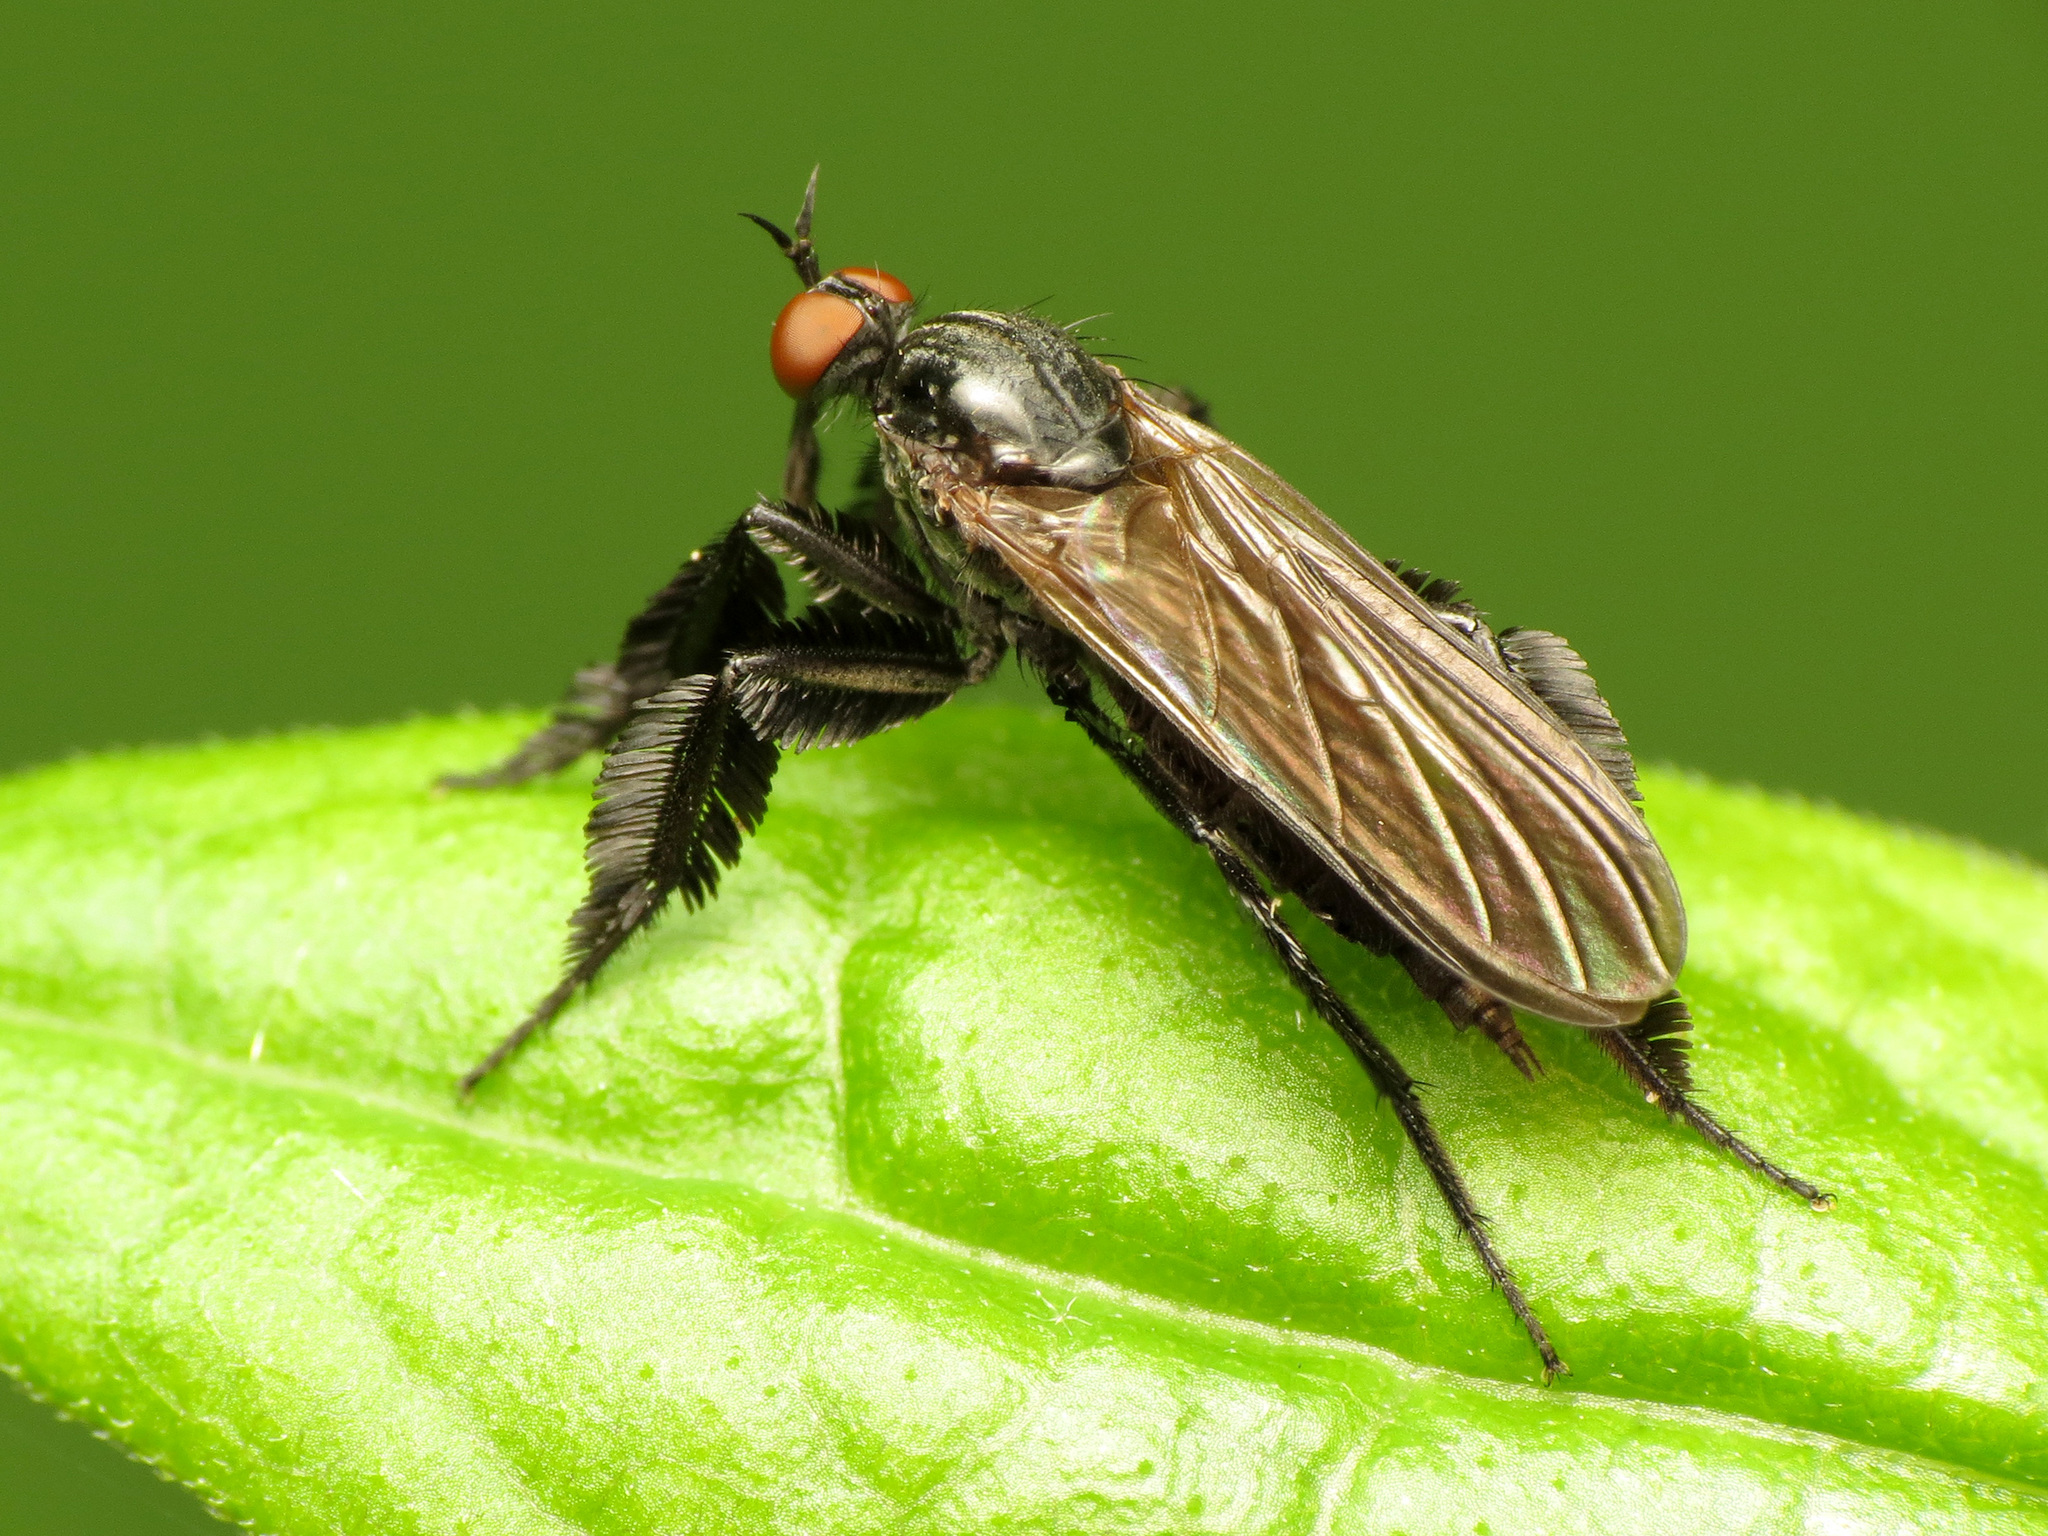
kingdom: Animalia
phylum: Arthropoda
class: Insecta
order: Diptera
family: Empididae
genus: Rhamphomyia
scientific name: Rhamphomyia longicauda
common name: Long-tailed dance fly
